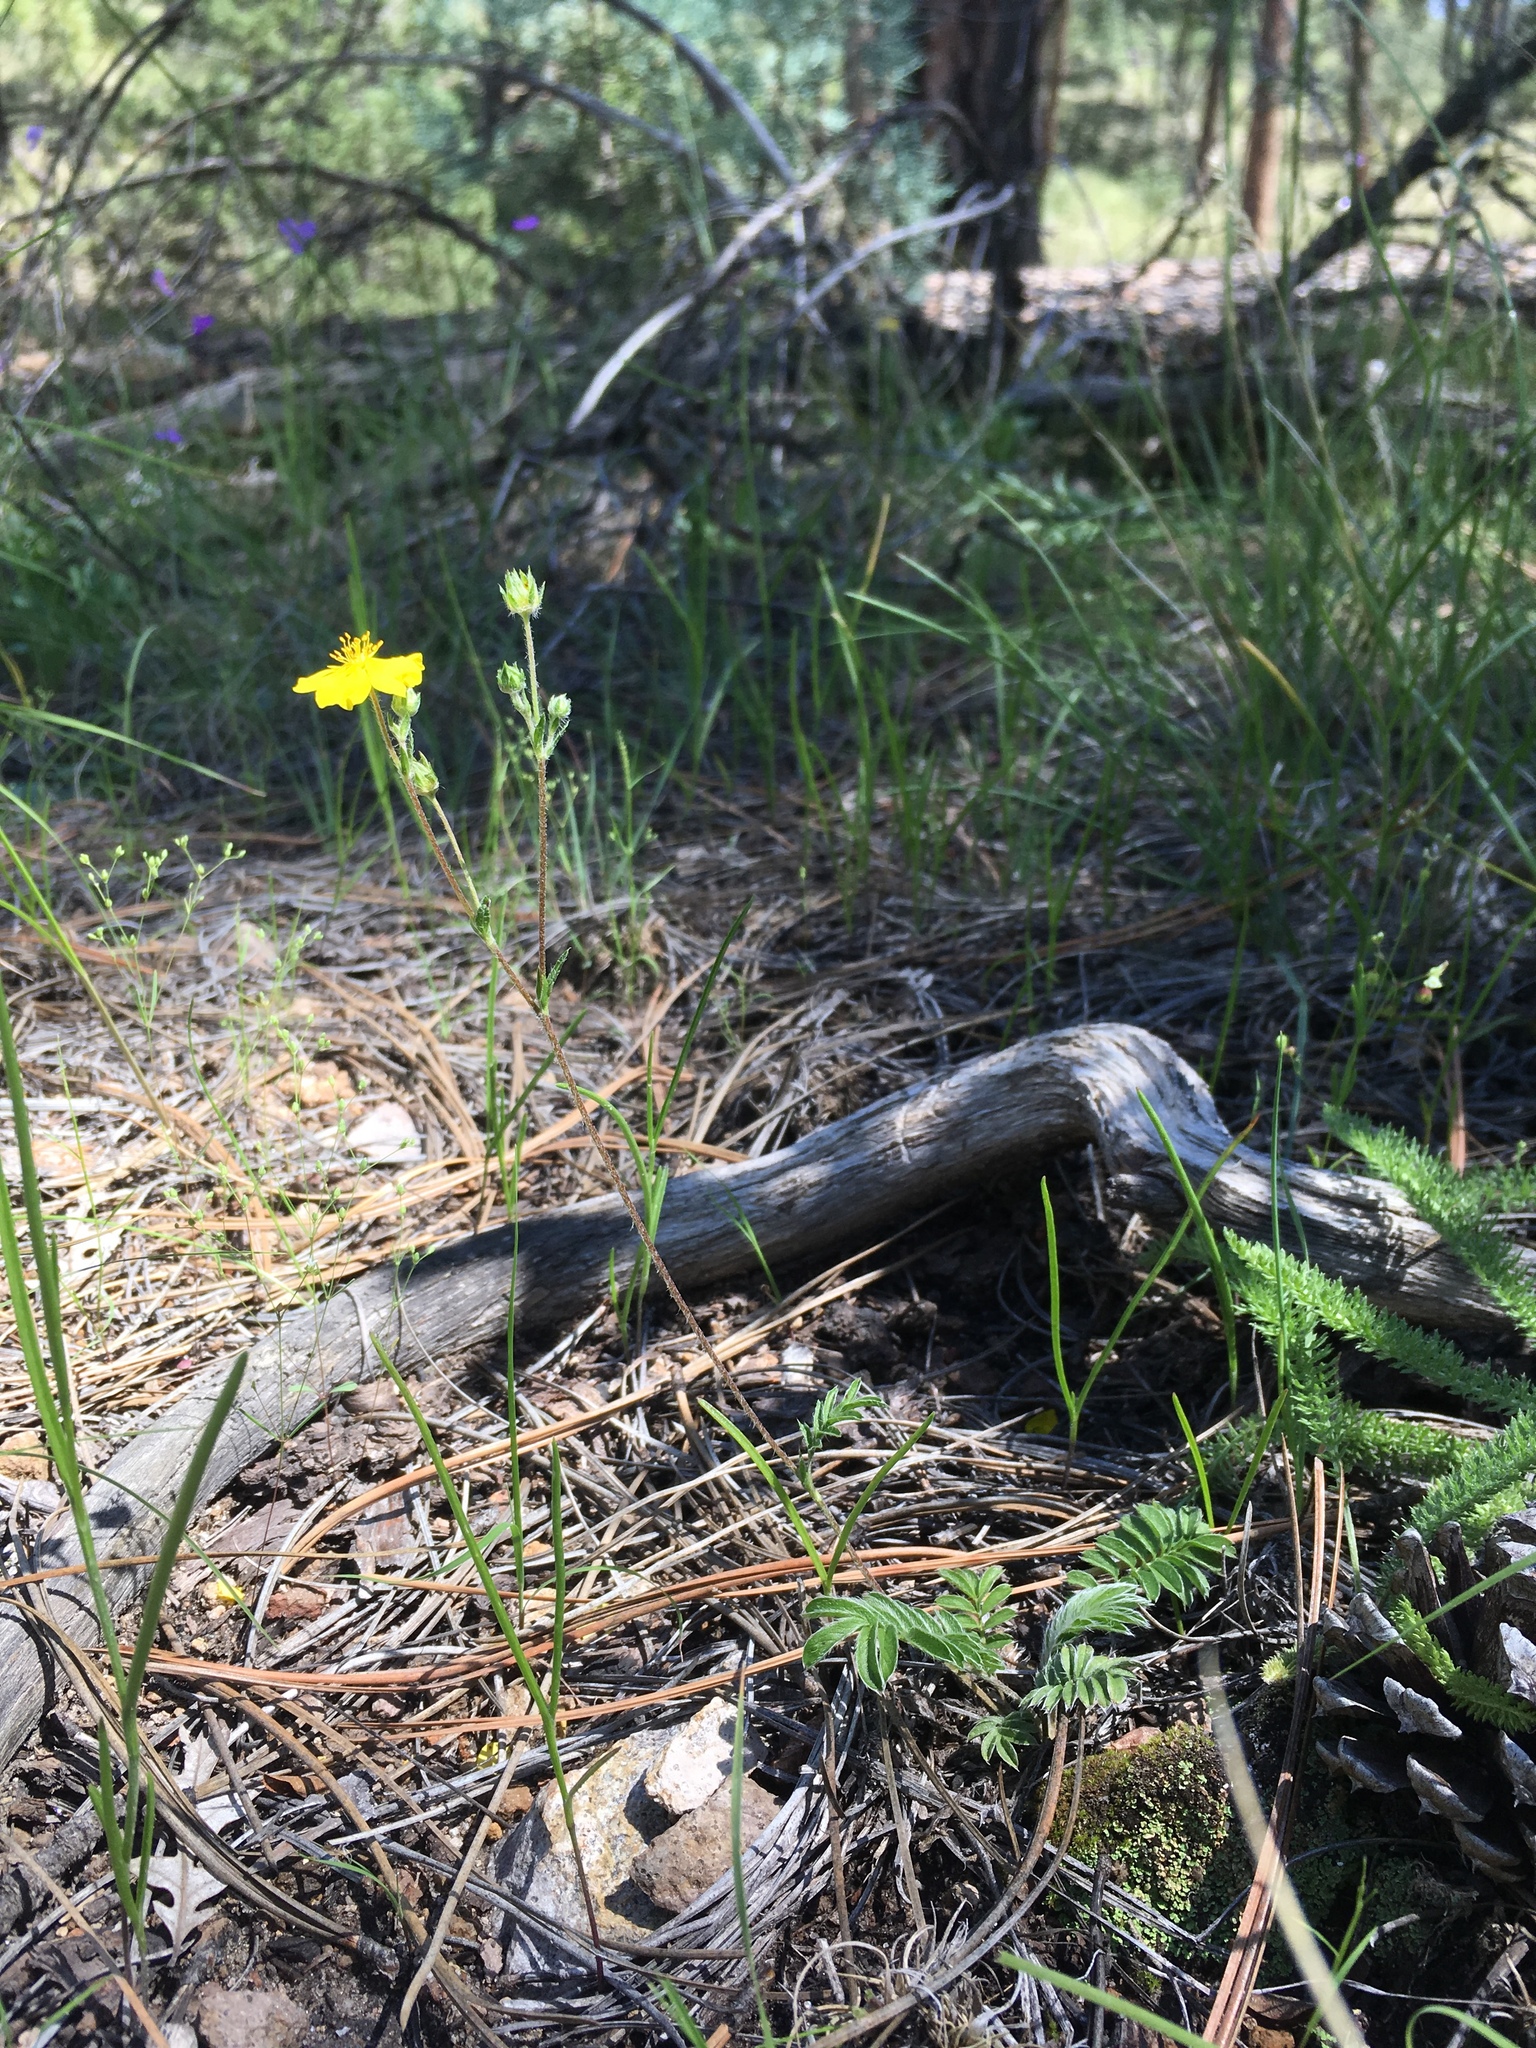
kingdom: Plantae
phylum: Tracheophyta
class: Magnoliopsida
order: Rosales
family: Rosaceae
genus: Potentilla
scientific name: Potentilla crinita
